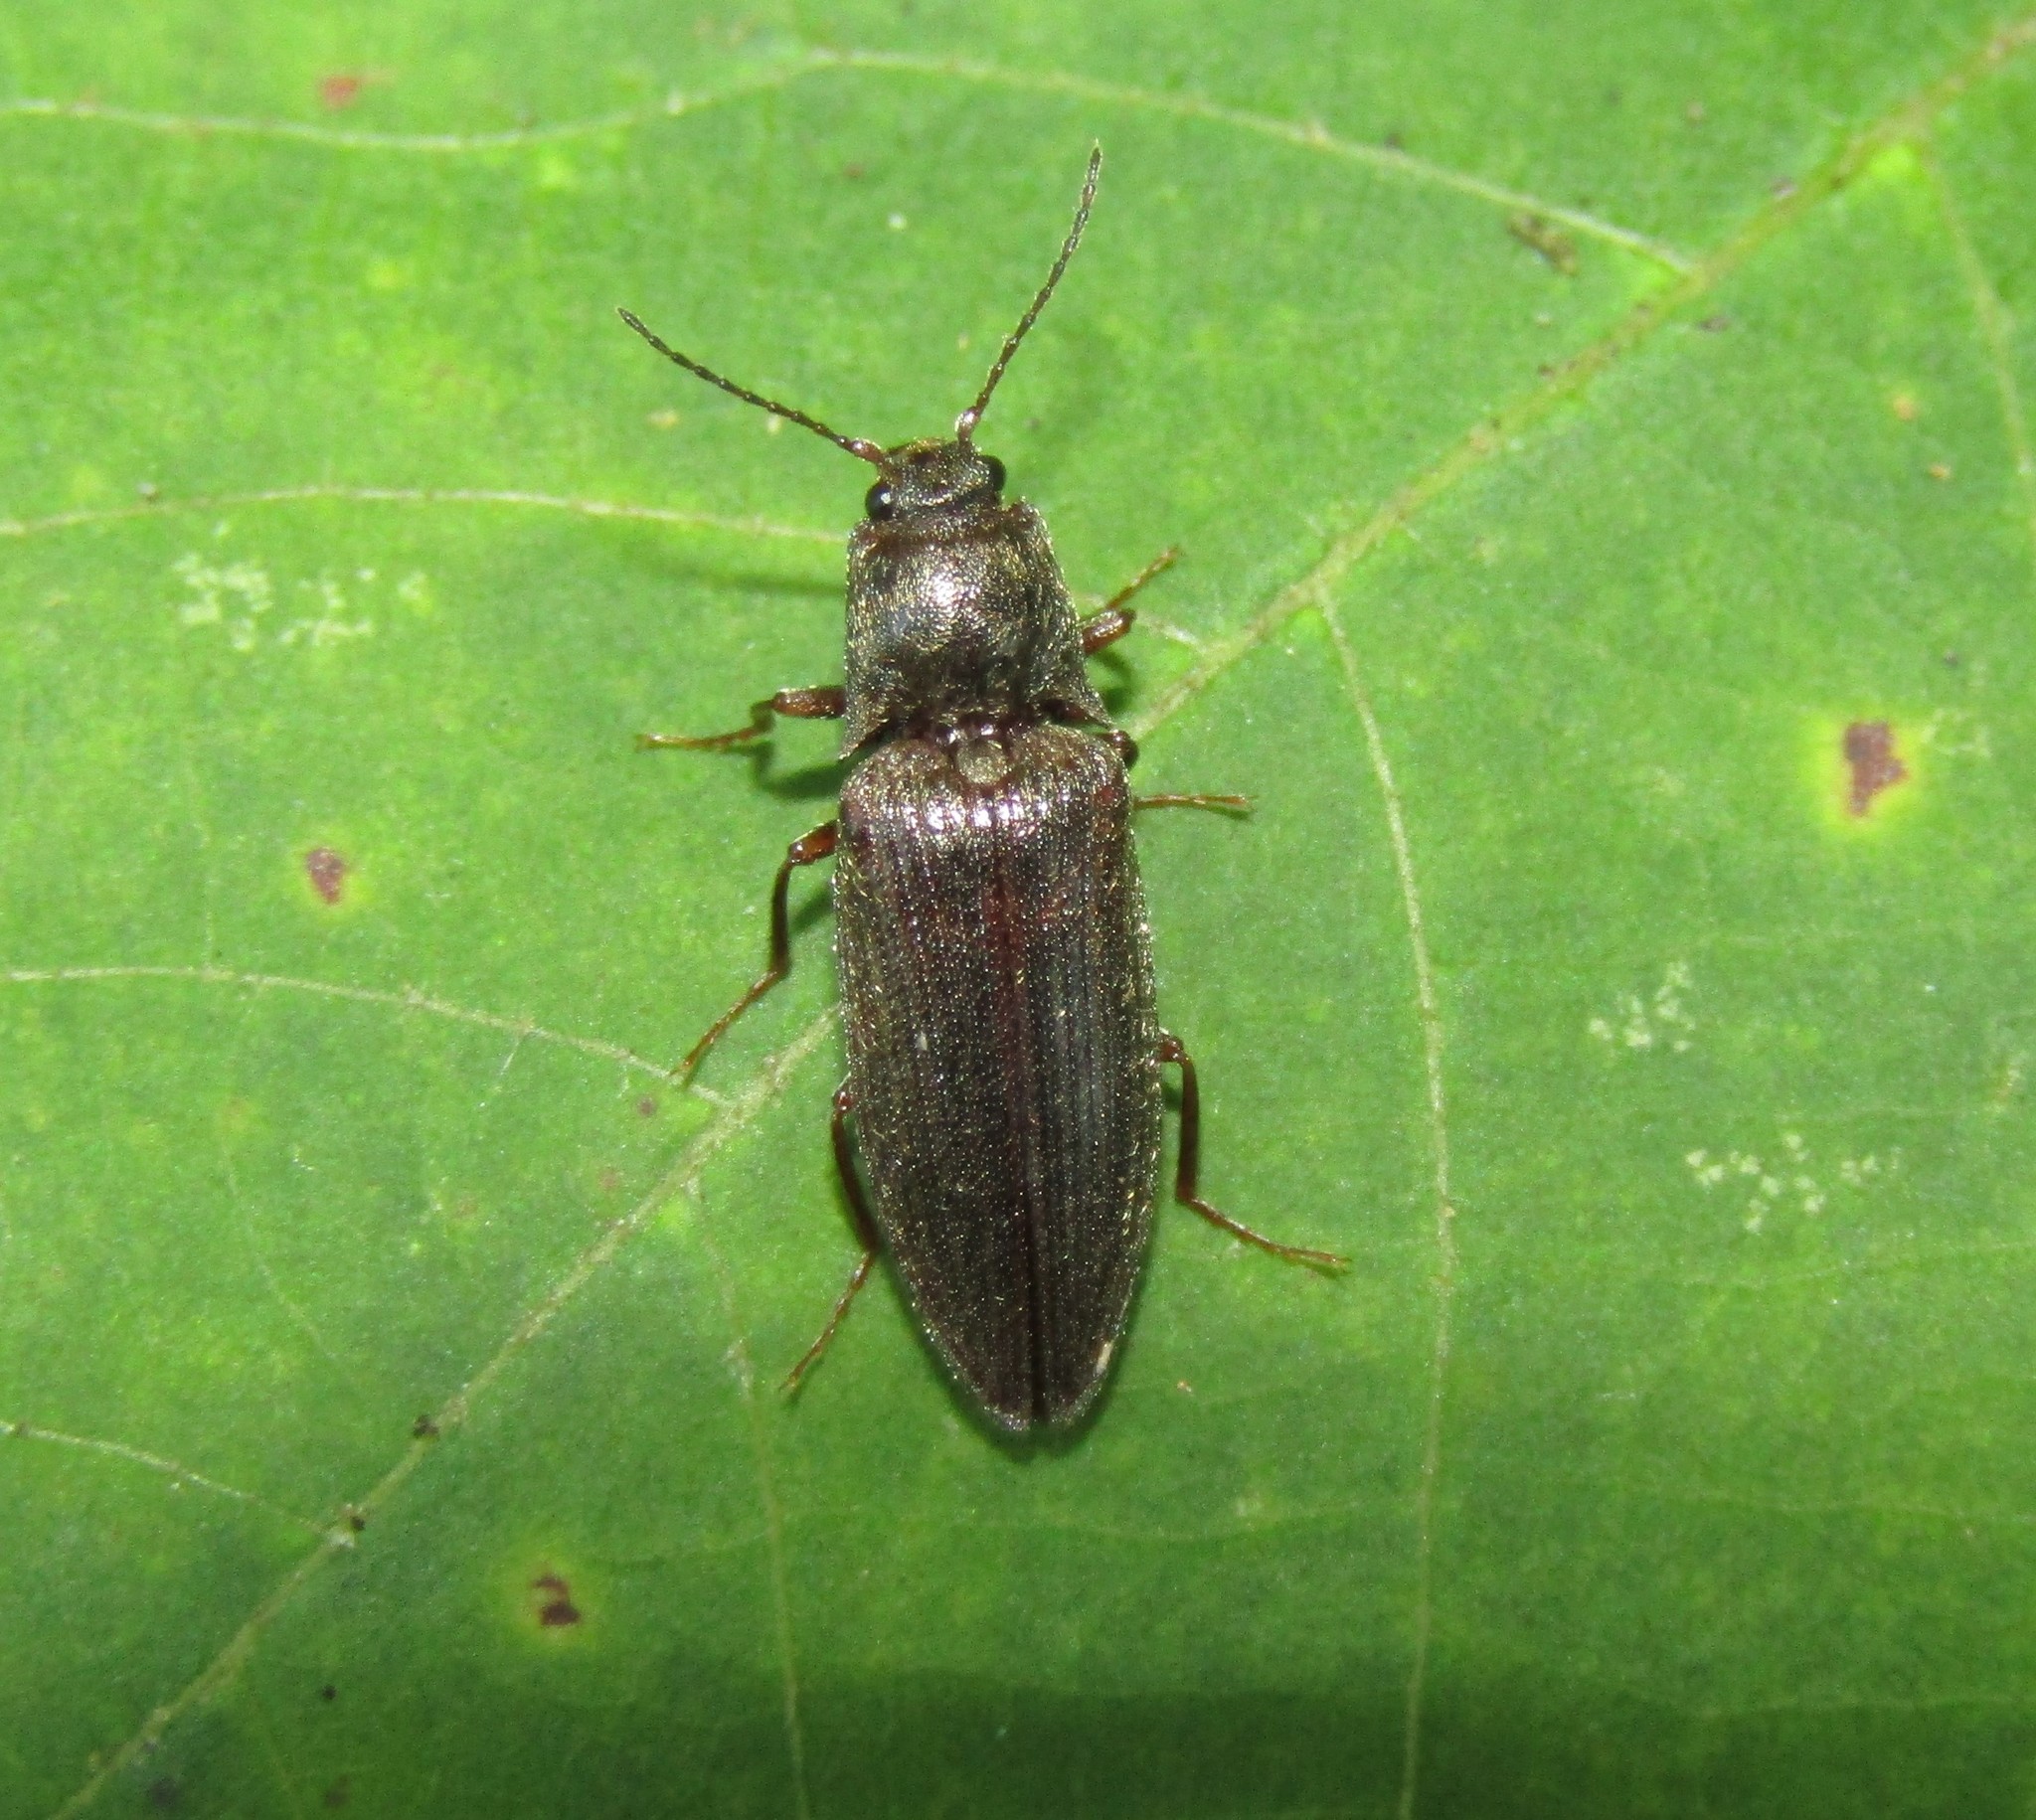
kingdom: Animalia
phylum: Arthropoda
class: Insecta
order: Coleoptera
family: Elateridae
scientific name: Elateridae
